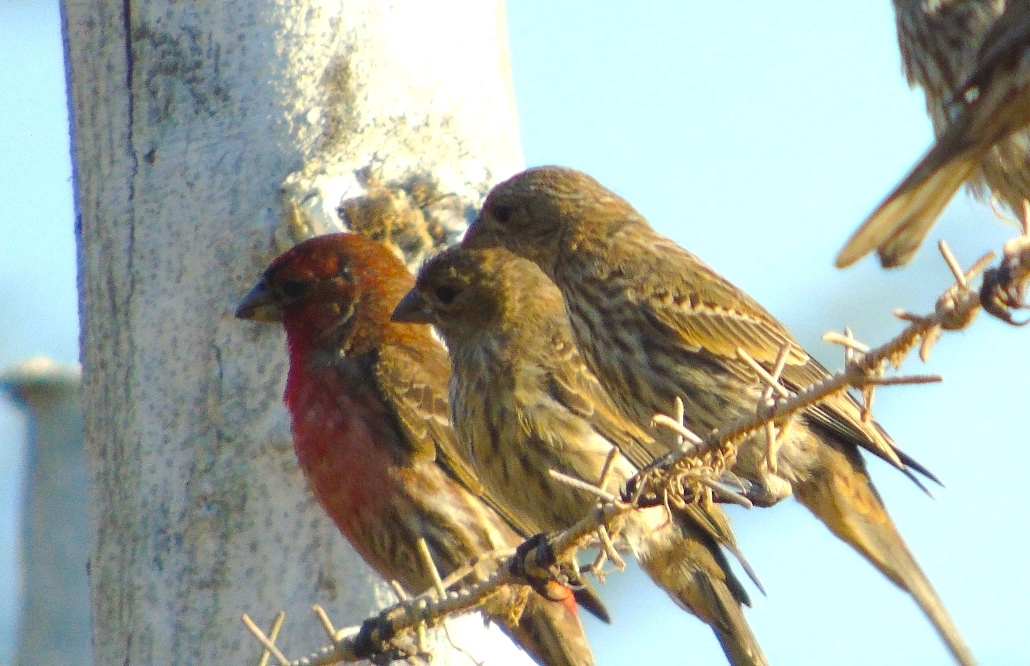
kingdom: Animalia
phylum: Chordata
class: Aves
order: Passeriformes
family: Fringillidae
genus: Haemorhous
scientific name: Haemorhous mexicanus
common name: House finch
